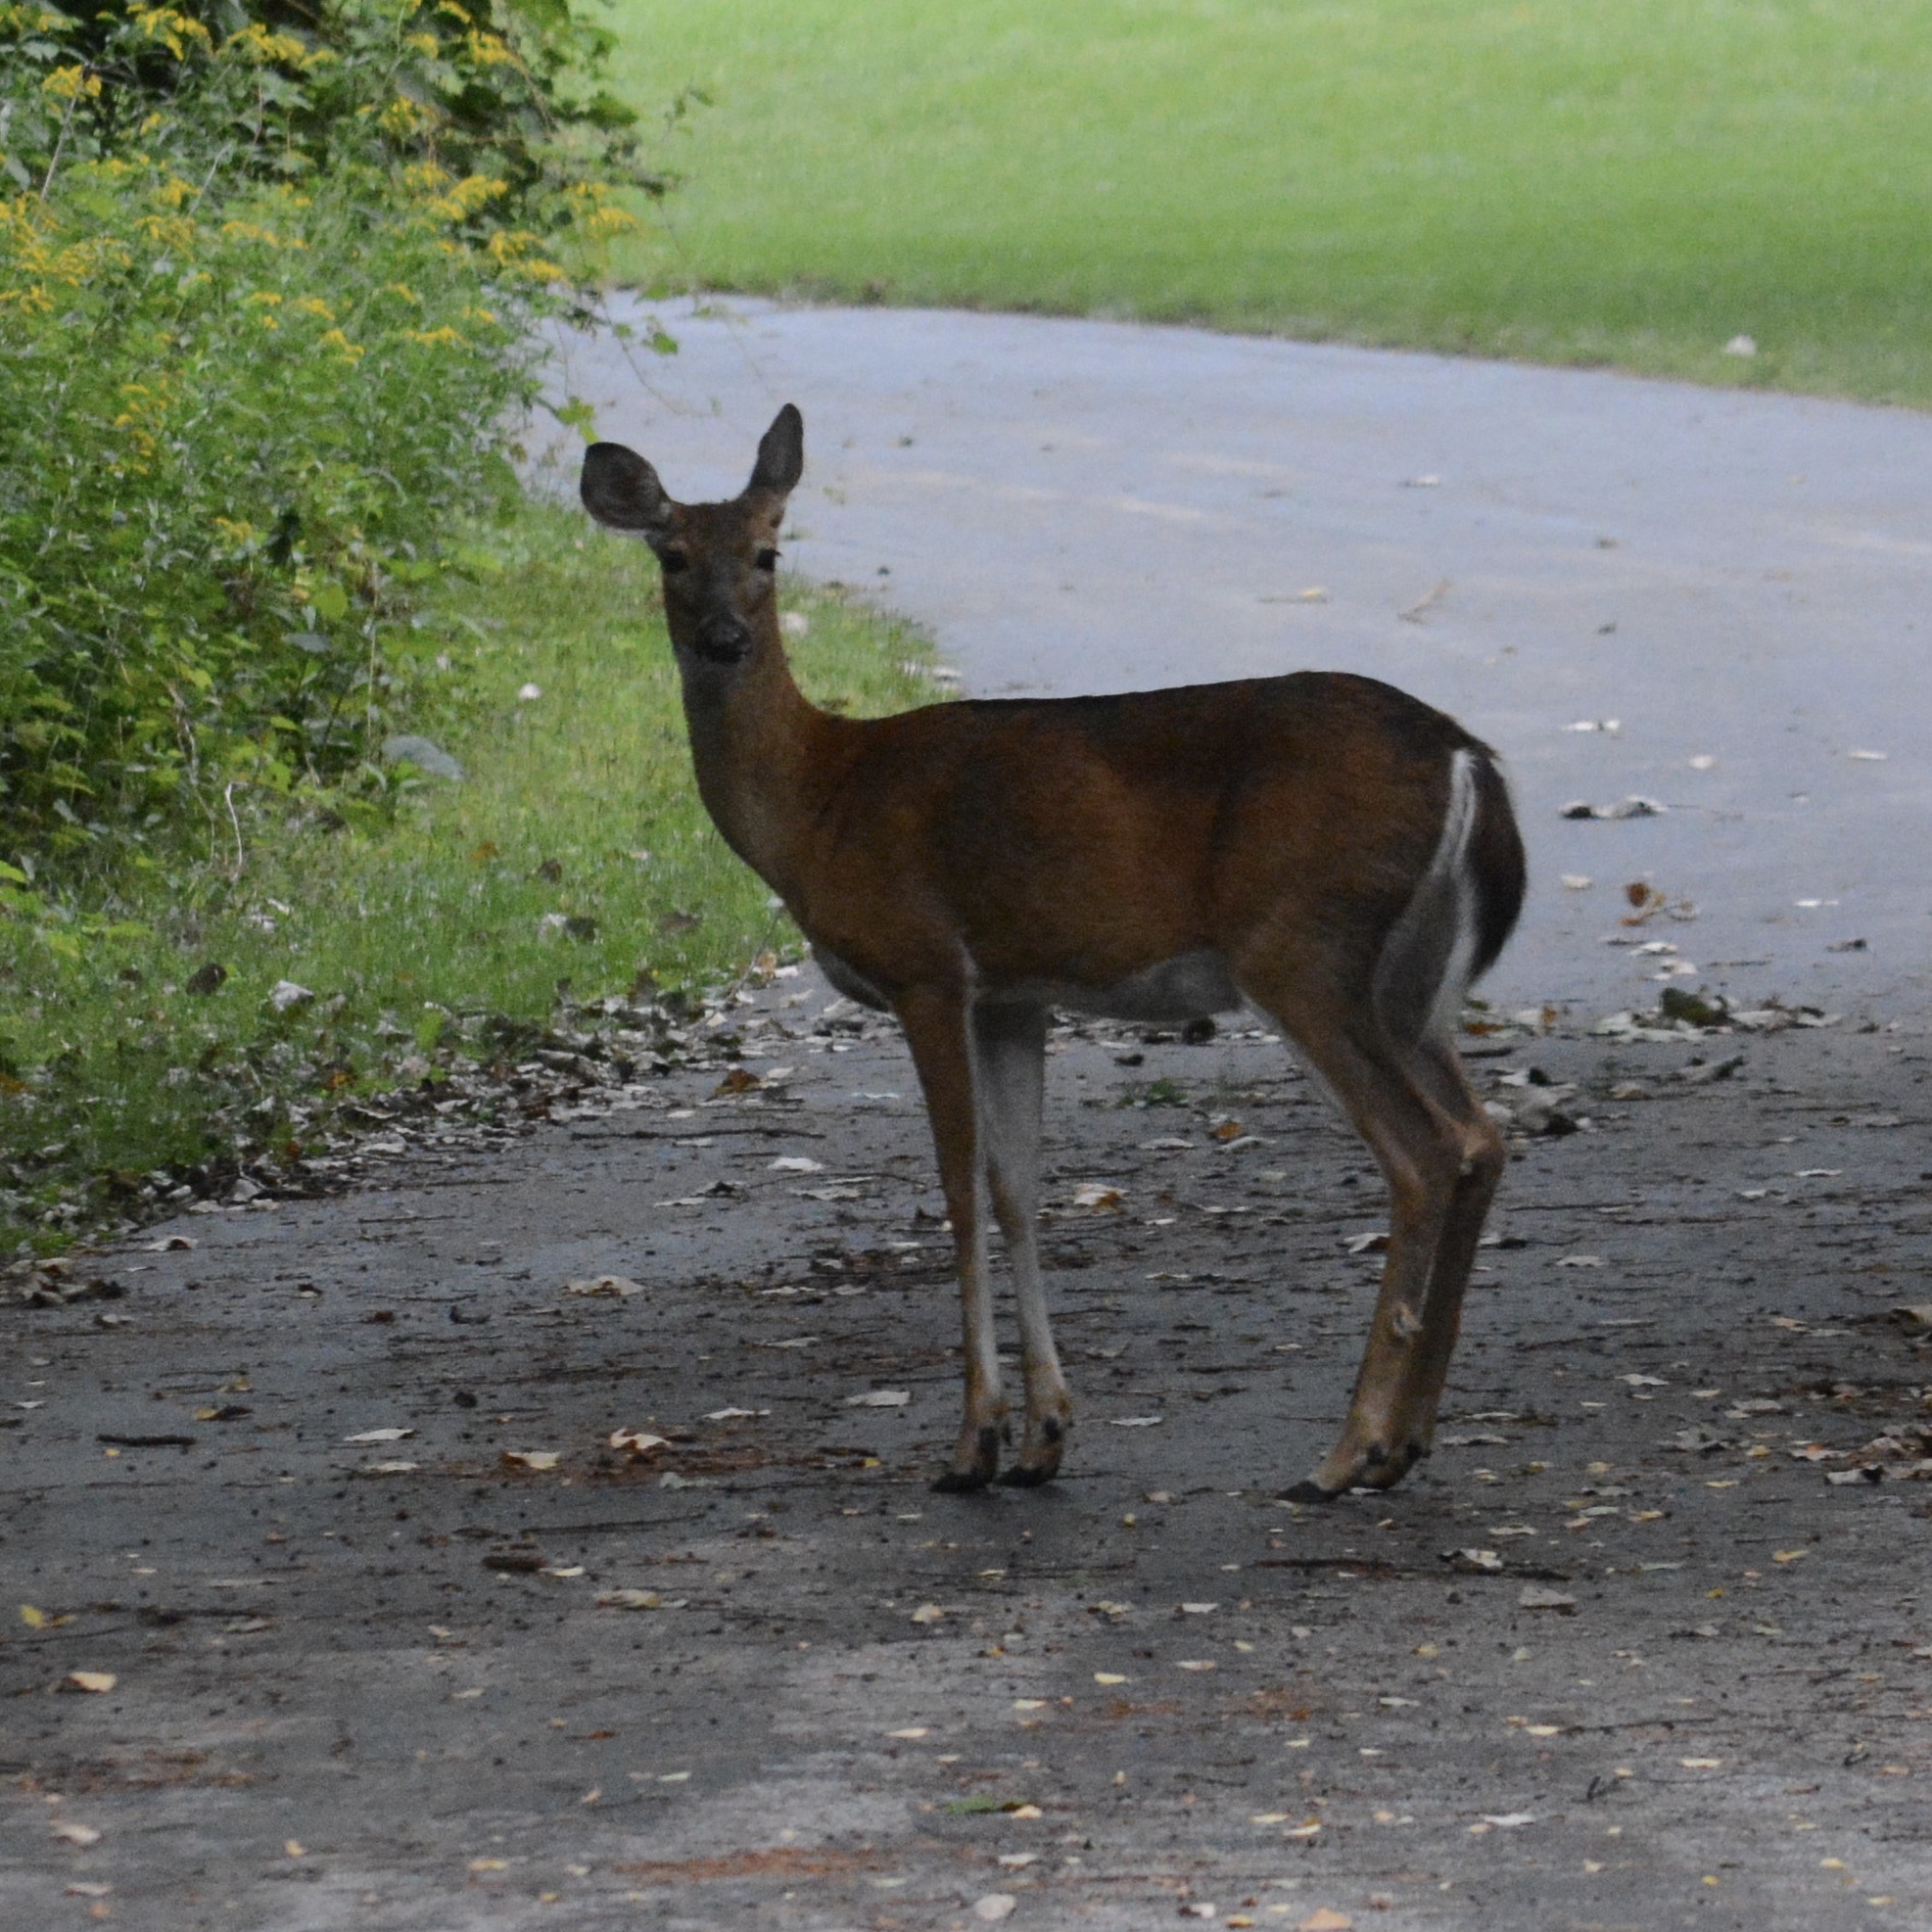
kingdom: Animalia
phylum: Chordata
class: Mammalia
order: Artiodactyla
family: Cervidae
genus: Odocoileus
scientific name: Odocoileus virginianus
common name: White-tailed deer
